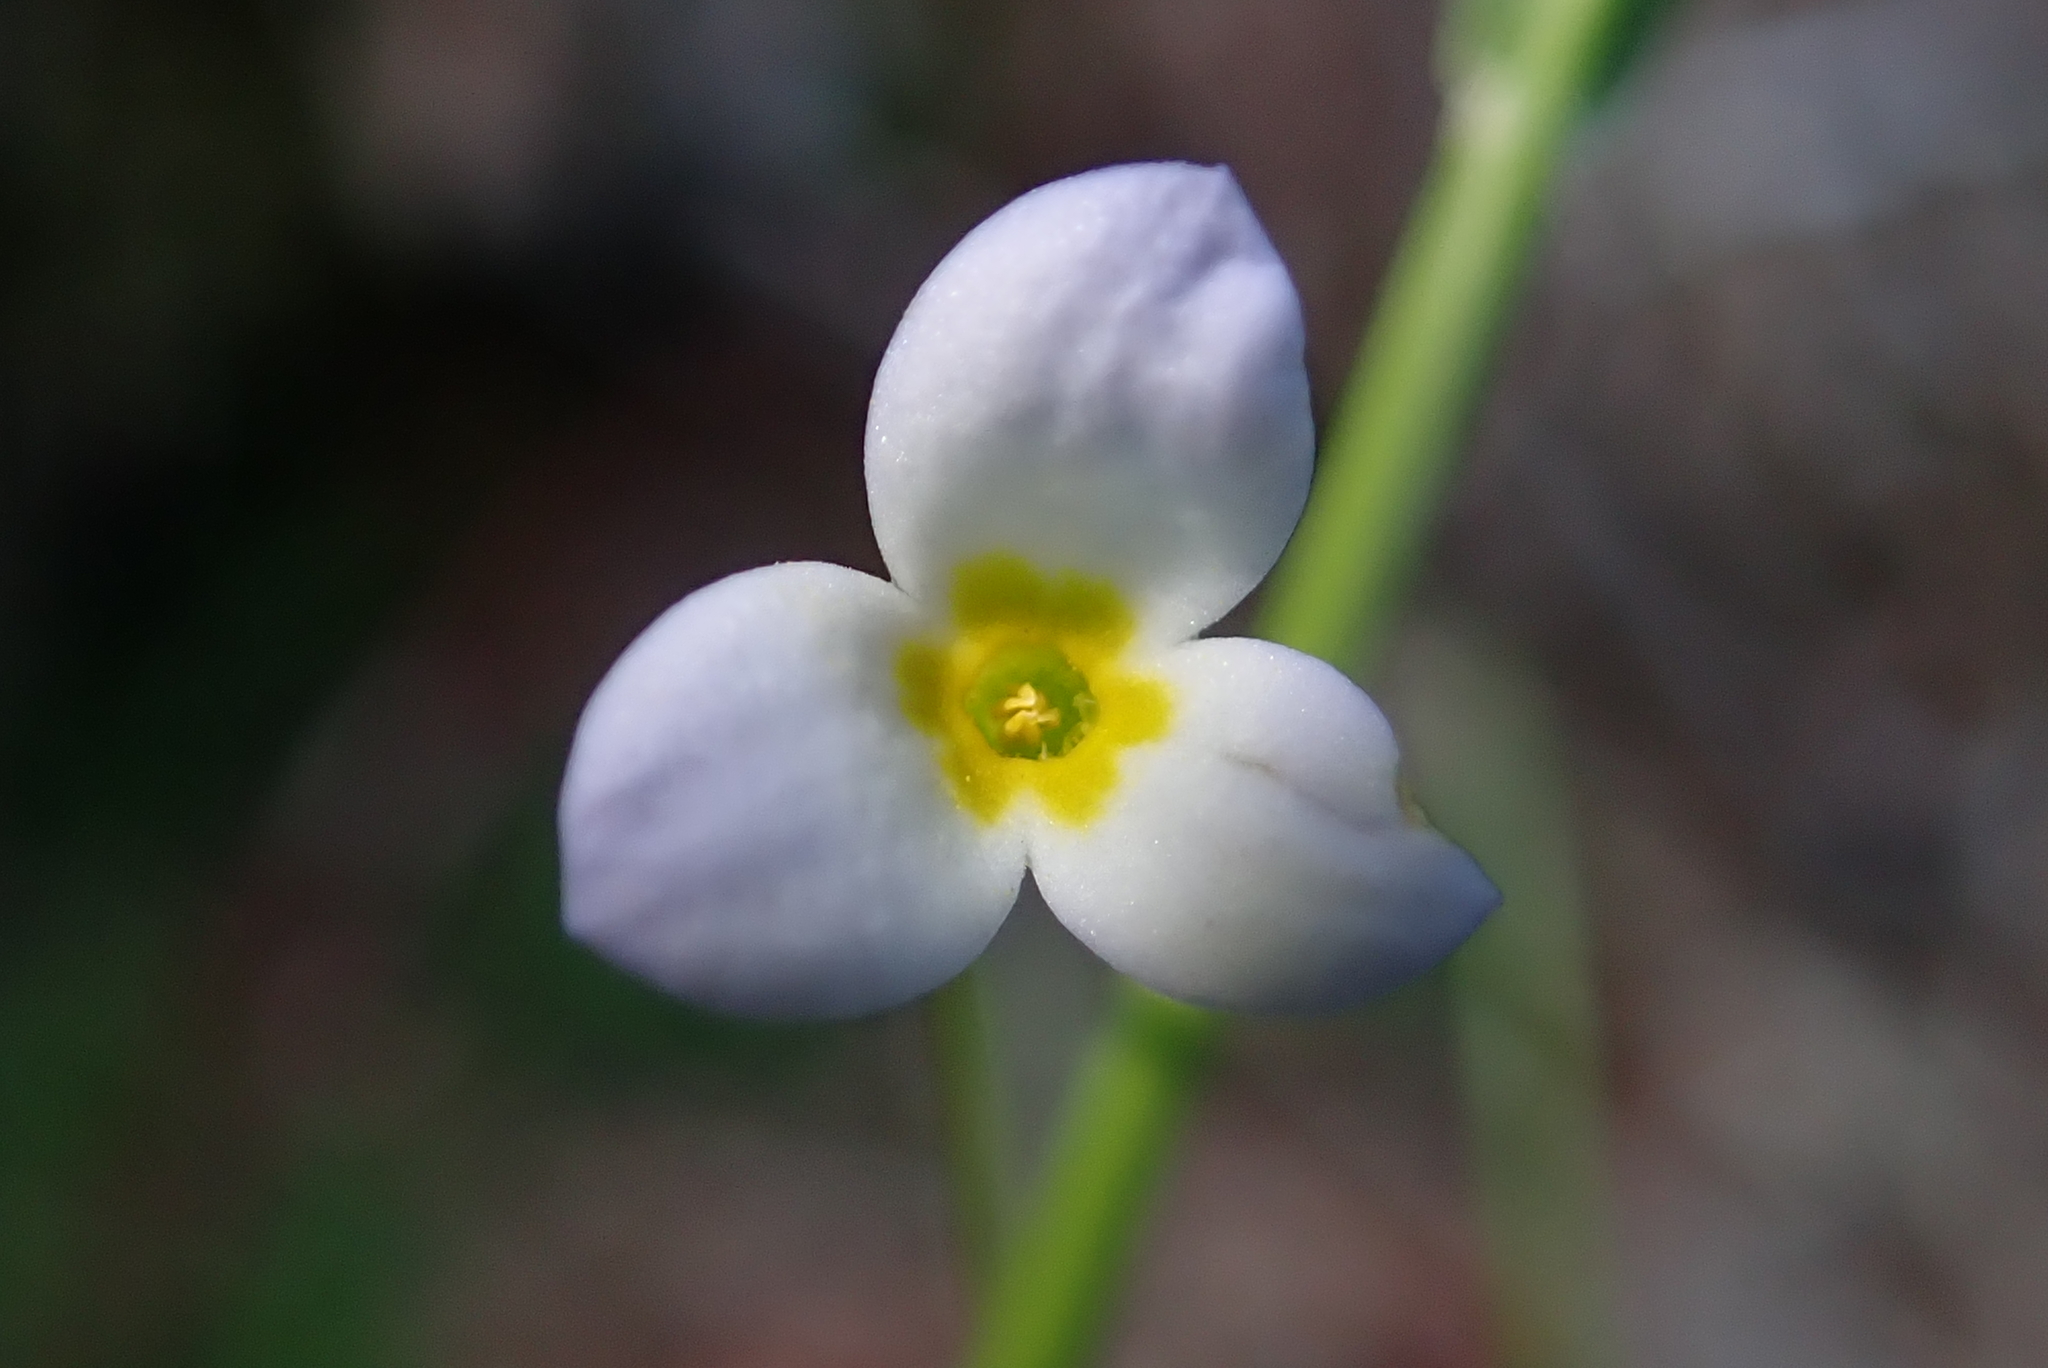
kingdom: Plantae
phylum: Tracheophyta
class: Magnoliopsida
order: Gentianales
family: Rubiaceae
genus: Houstonia
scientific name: Houstonia caerulea
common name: Bluets
